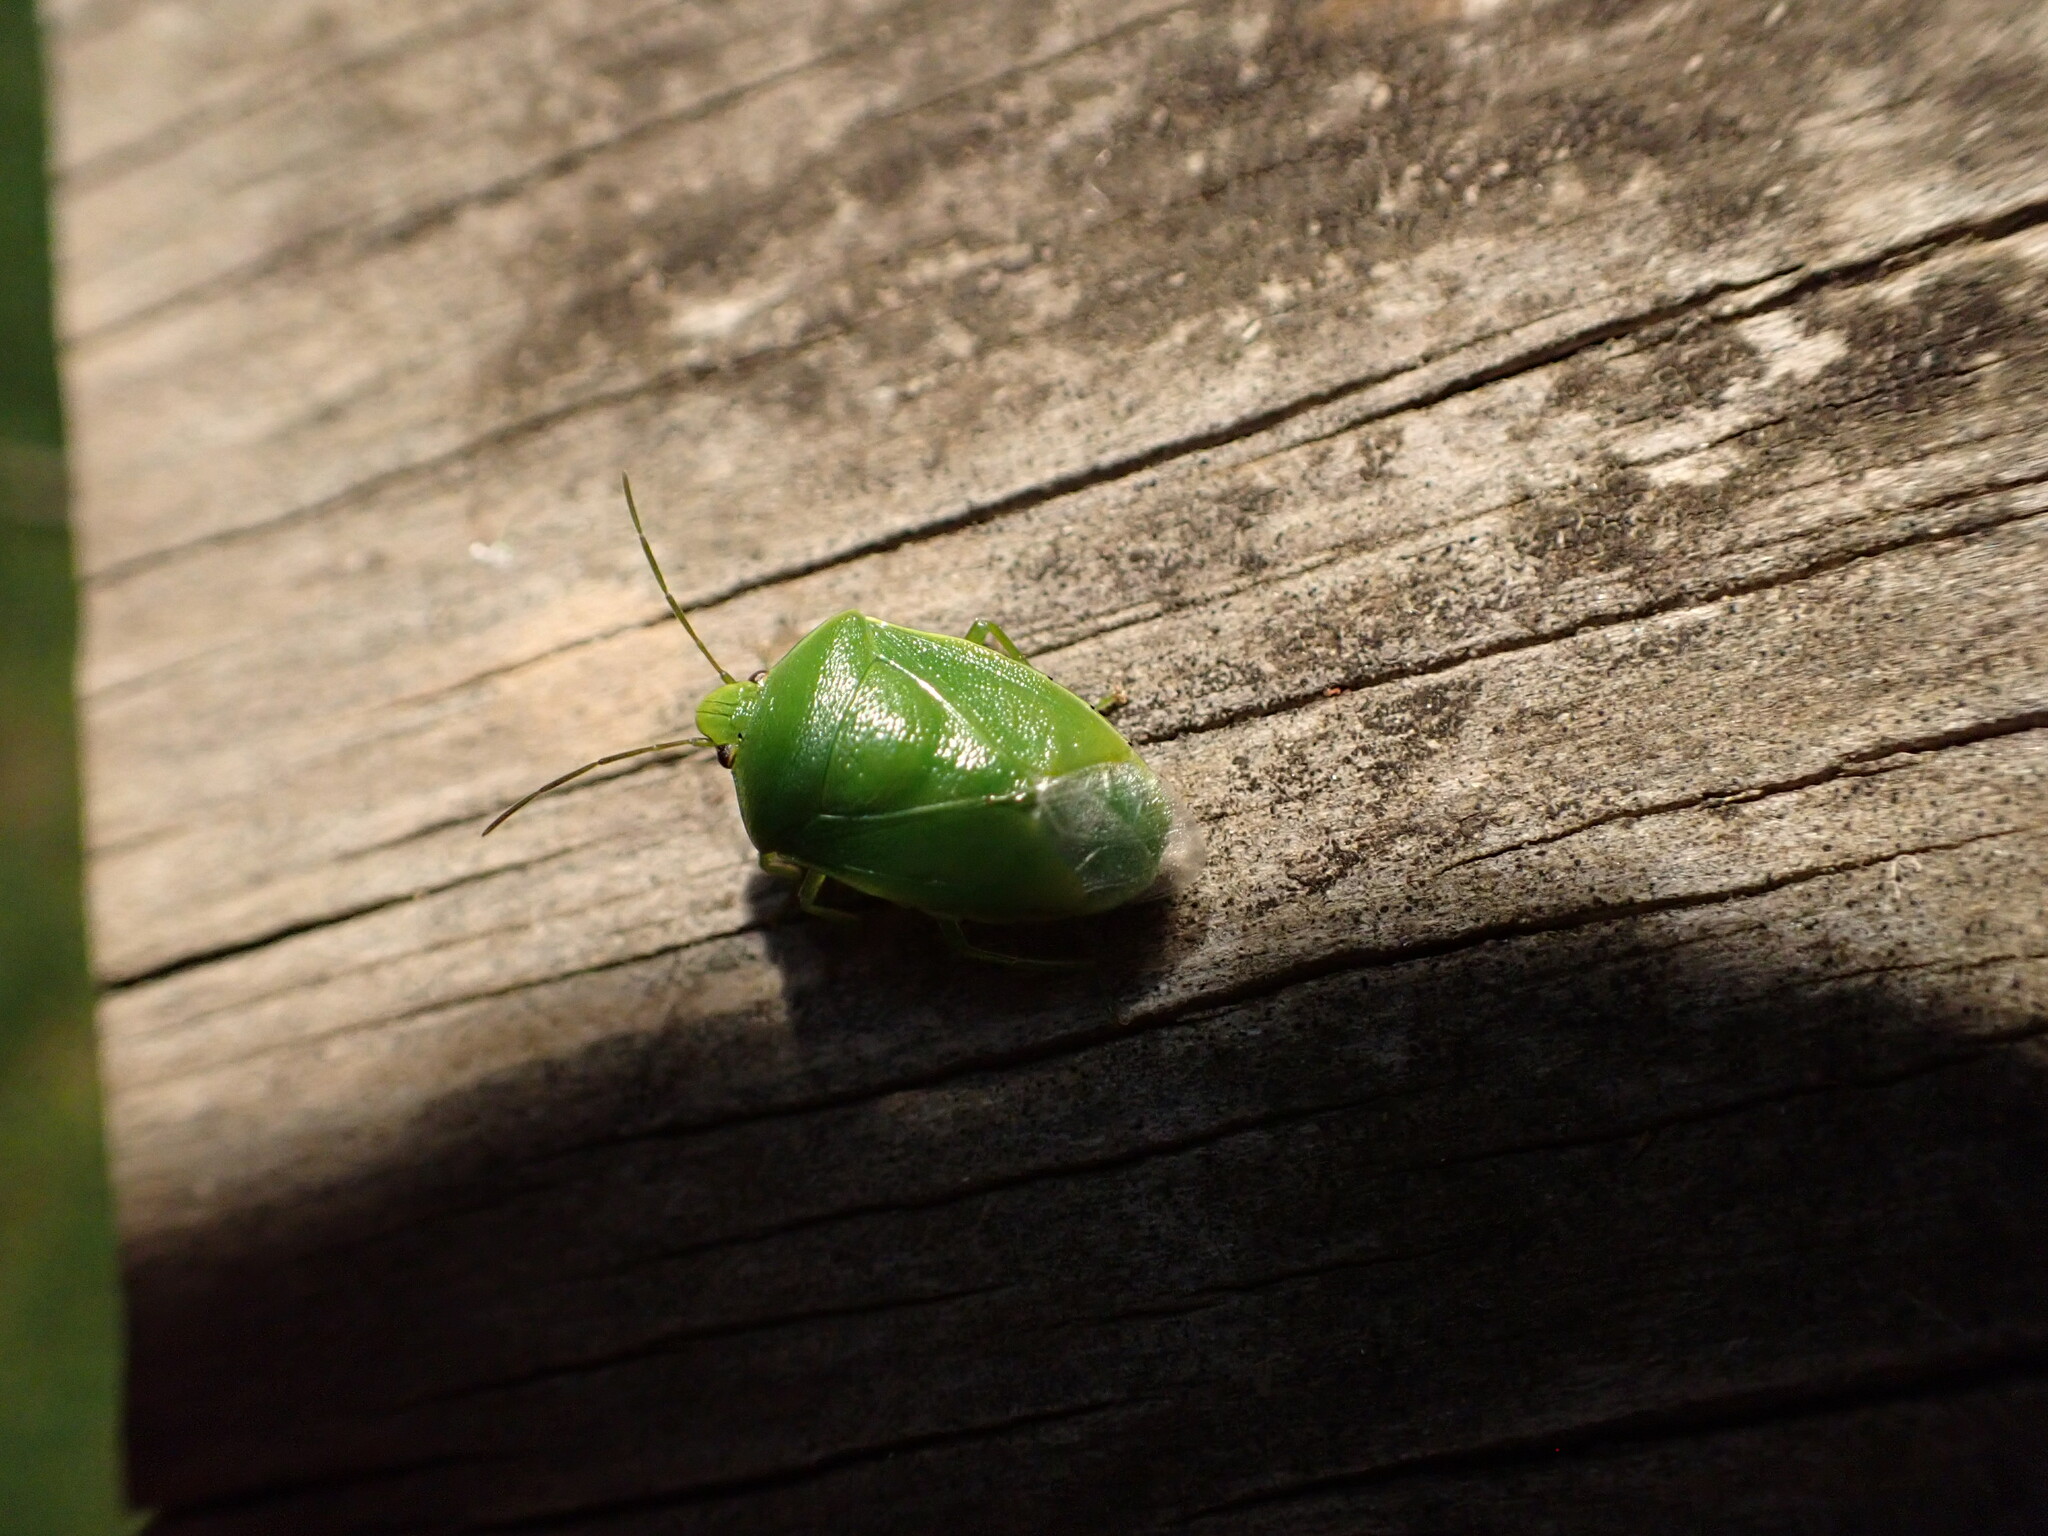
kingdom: Animalia
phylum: Arthropoda
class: Insecta
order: Hemiptera
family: Pentatomidae
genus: Glaucias
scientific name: Glaucias amyota
